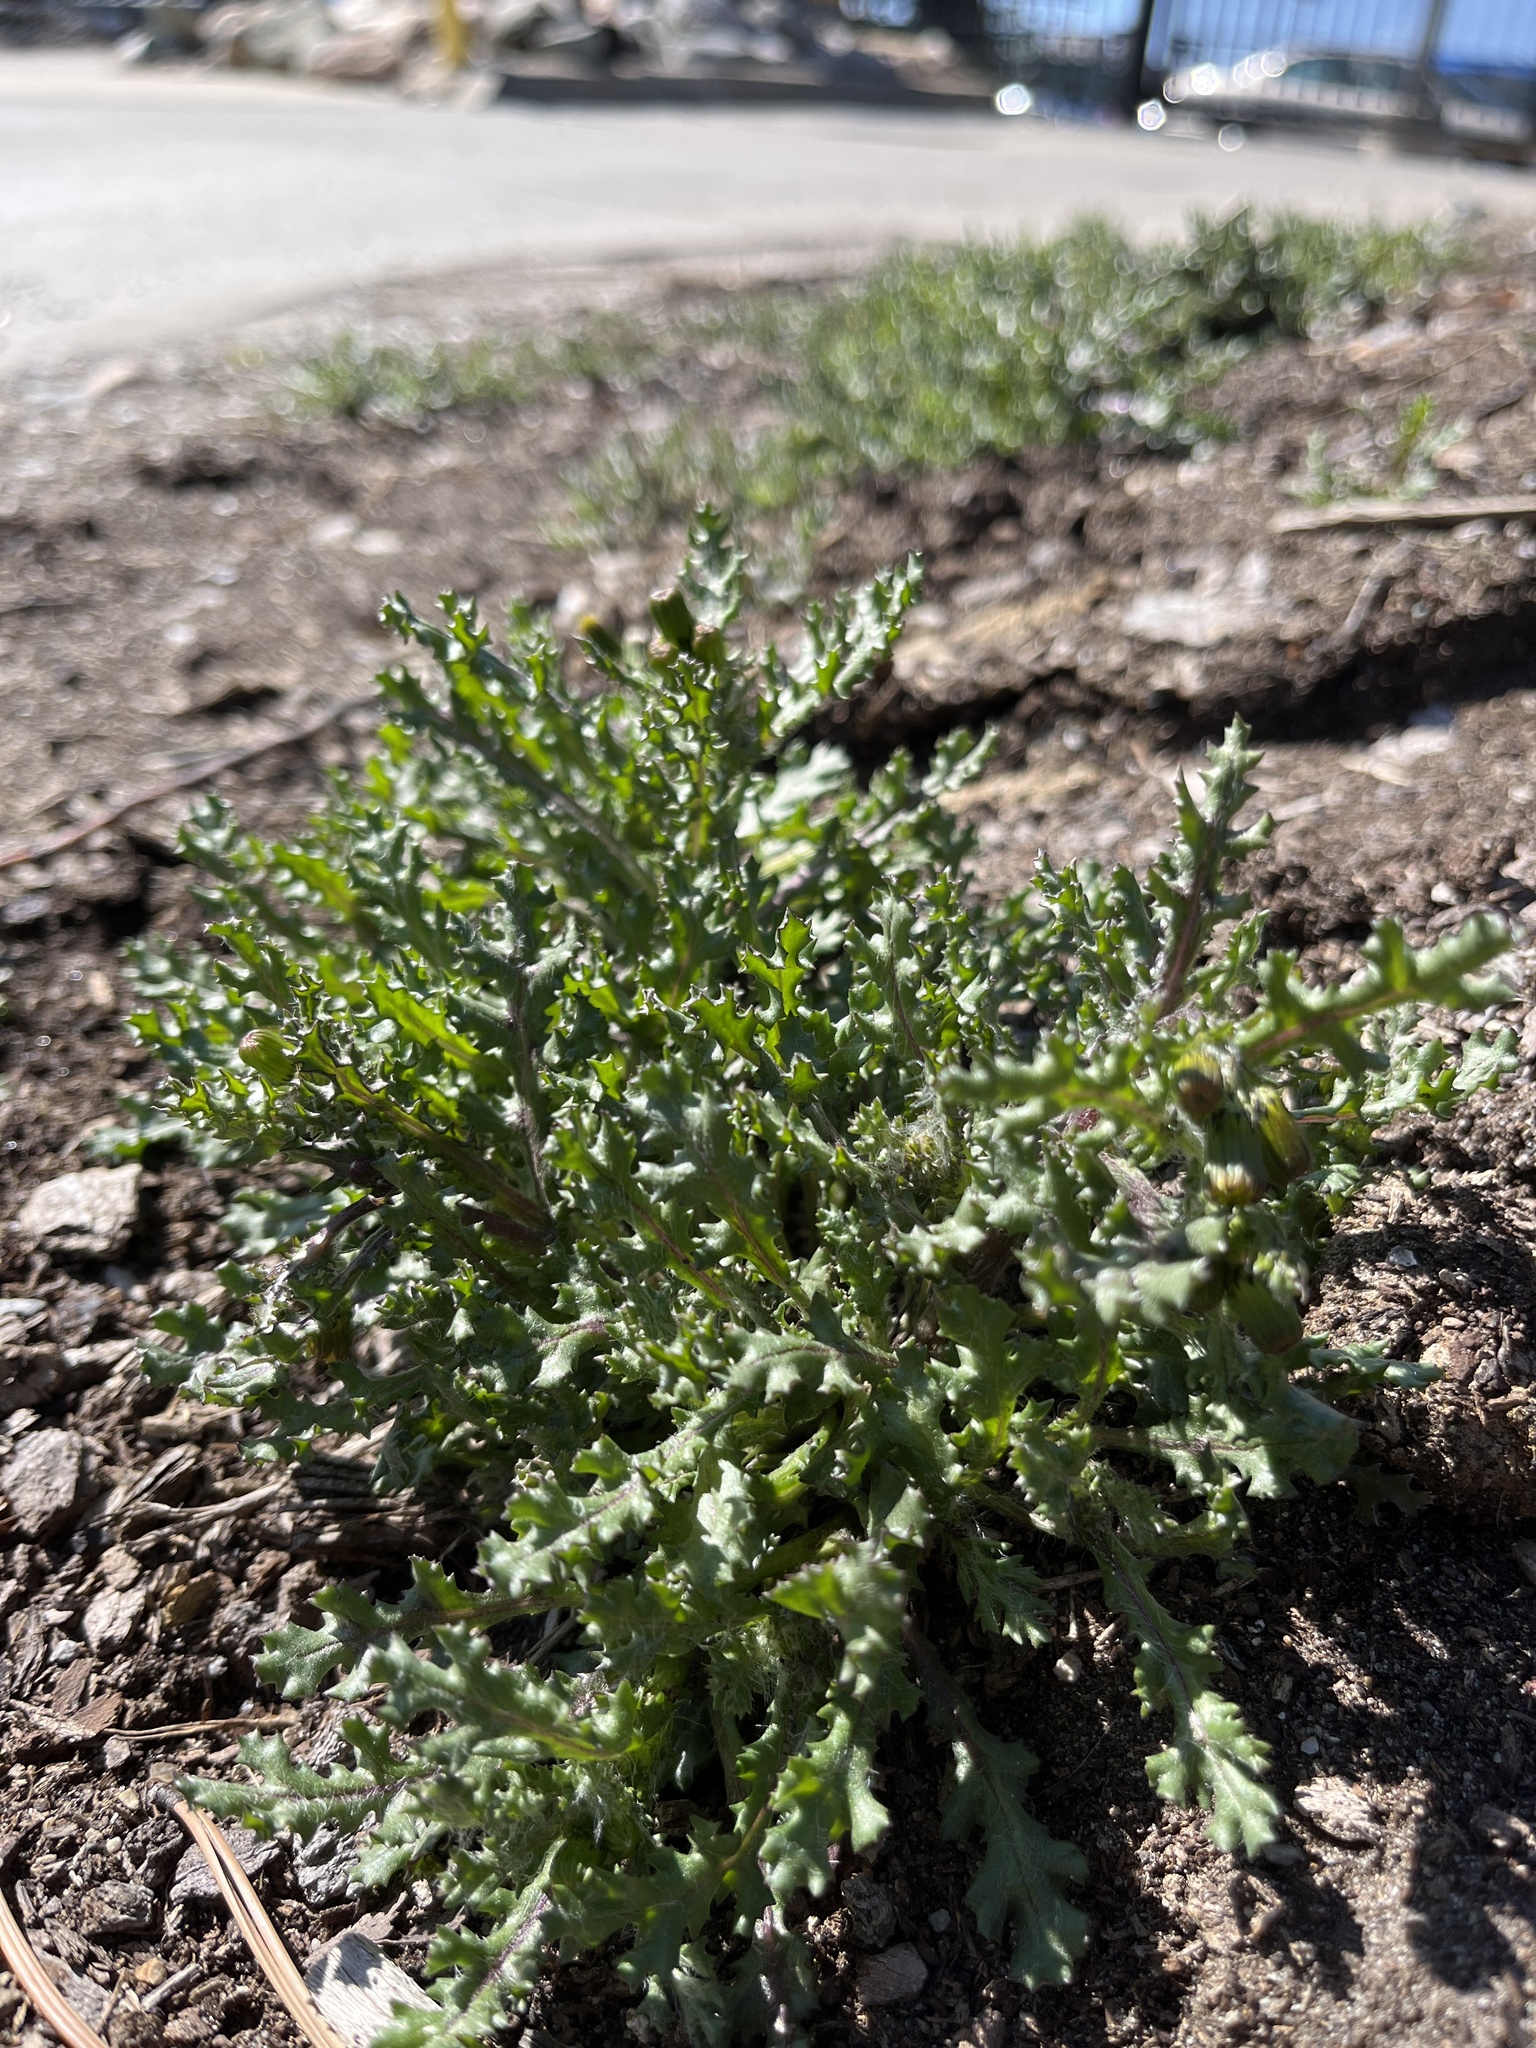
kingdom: Plantae
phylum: Tracheophyta
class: Magnoliopsida
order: Asterales
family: Asteraceae
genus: Senecio
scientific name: Senecio vulgaris
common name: Old-man-in-the-spring
